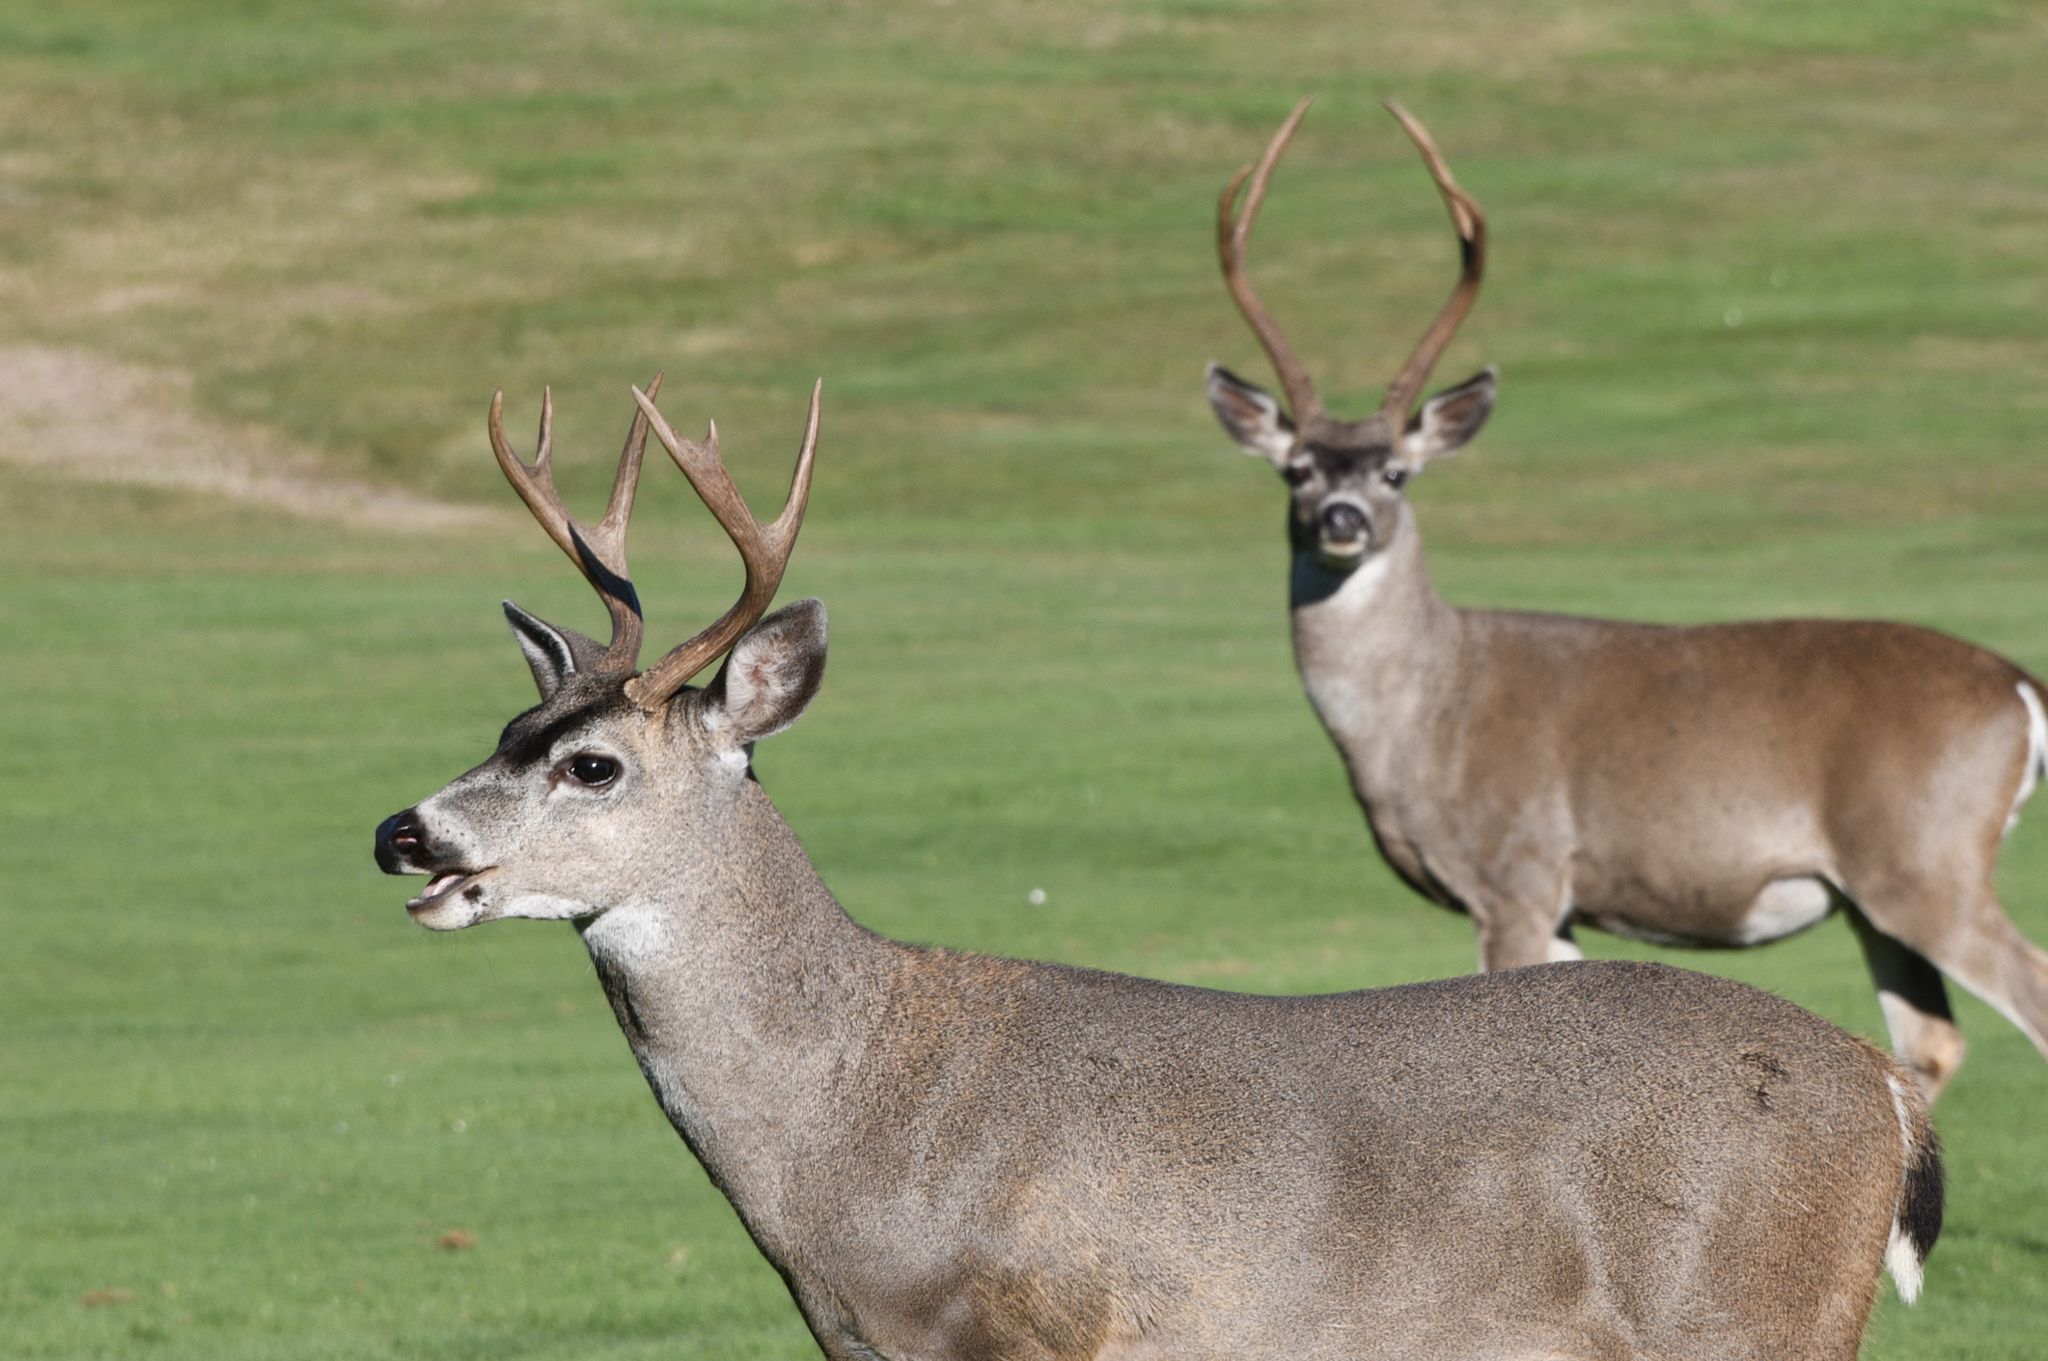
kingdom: Animalia
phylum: Chordata
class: Mammalia
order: Artiodactyla
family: Cervidae
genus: Odocoileus
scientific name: Odocoileus hemionus
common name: Mule deer
